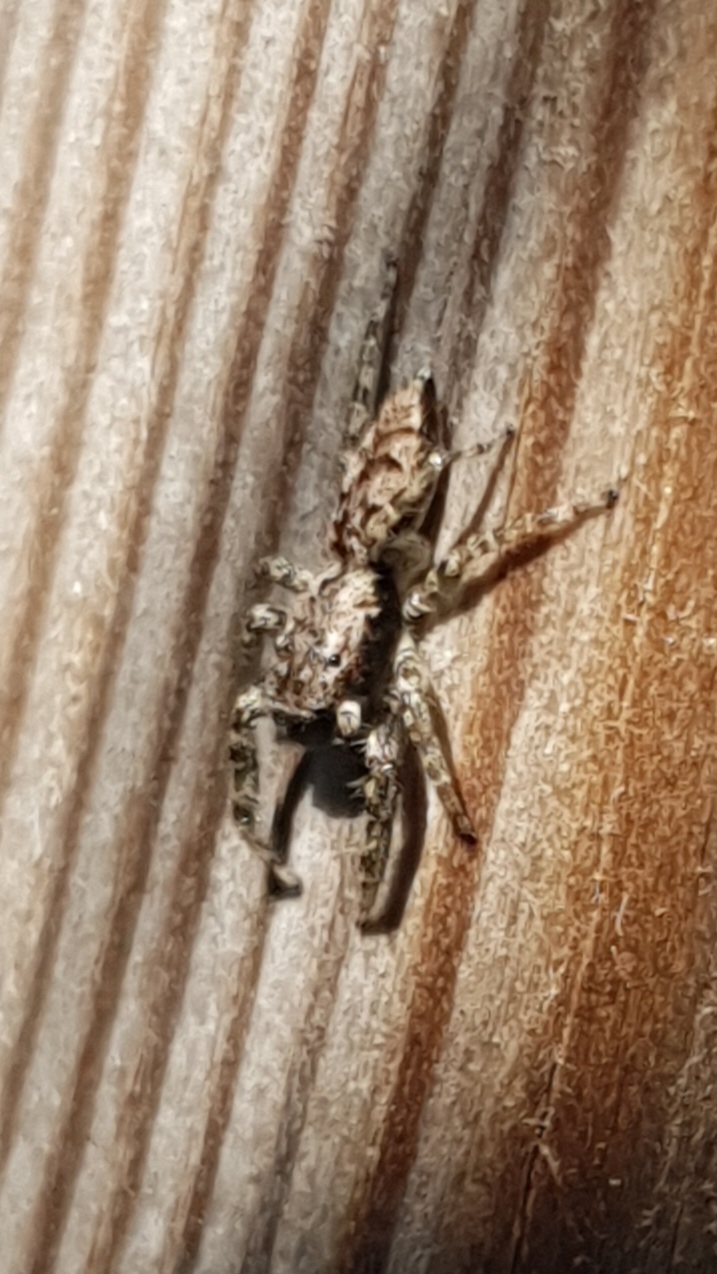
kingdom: Animalia
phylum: Arthropoda
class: Arachnida
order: Araneae
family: Salticidae
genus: Marpissa
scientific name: Marpissa muscosa
